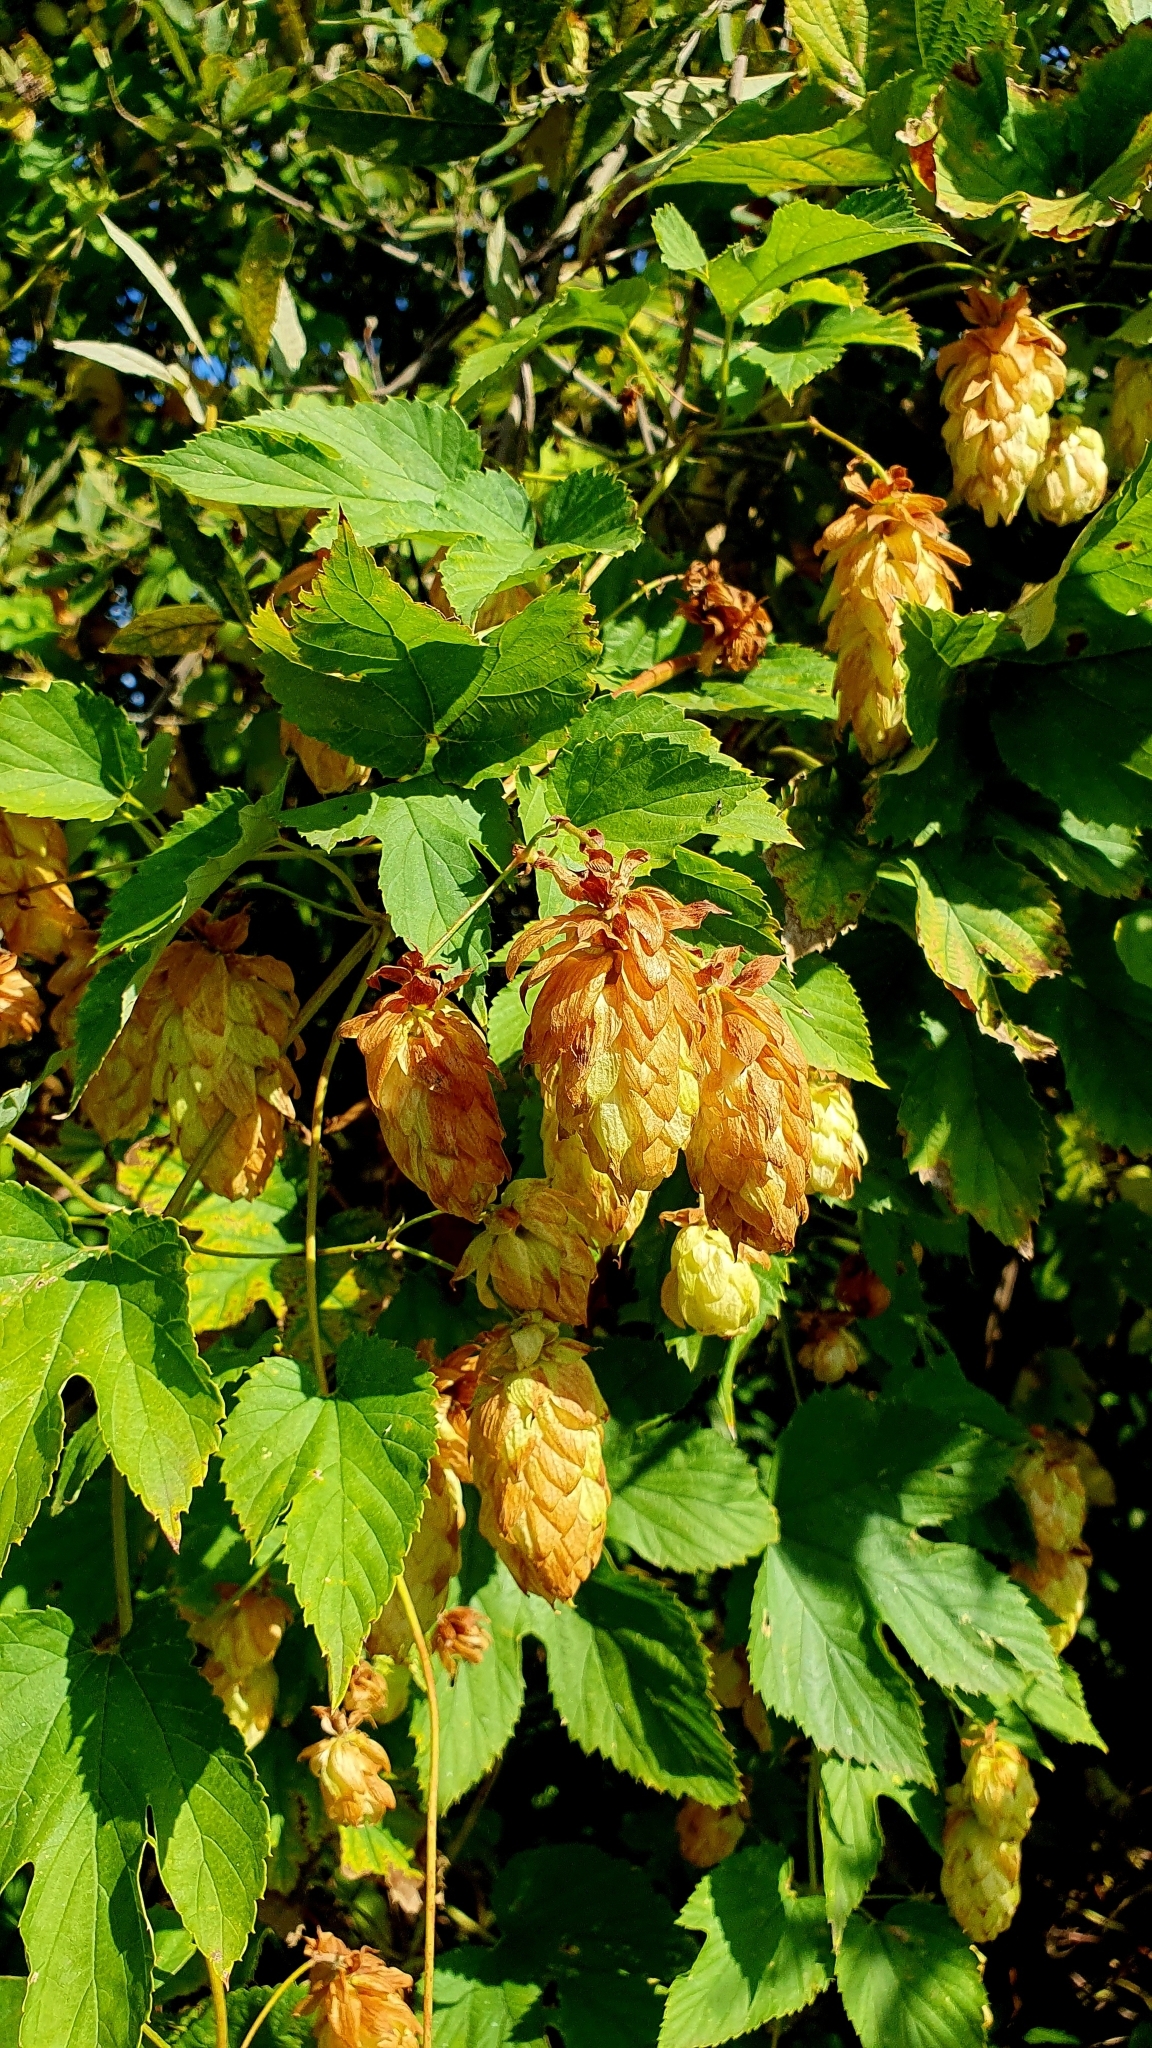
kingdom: Plantae
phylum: Tracheophyta
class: Magnoliopsida
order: Rosales
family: Cannabaceae
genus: Humulus
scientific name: Humulus lupulus
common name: Hop
